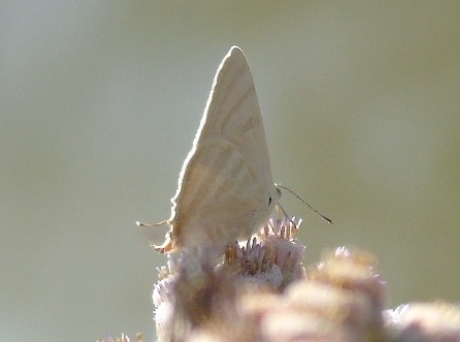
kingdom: Animalia
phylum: Arthropoda
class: Insecta
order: Lepidoptera
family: Lycaenidae
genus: Dolymorpha
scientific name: Dolymorpha jada
